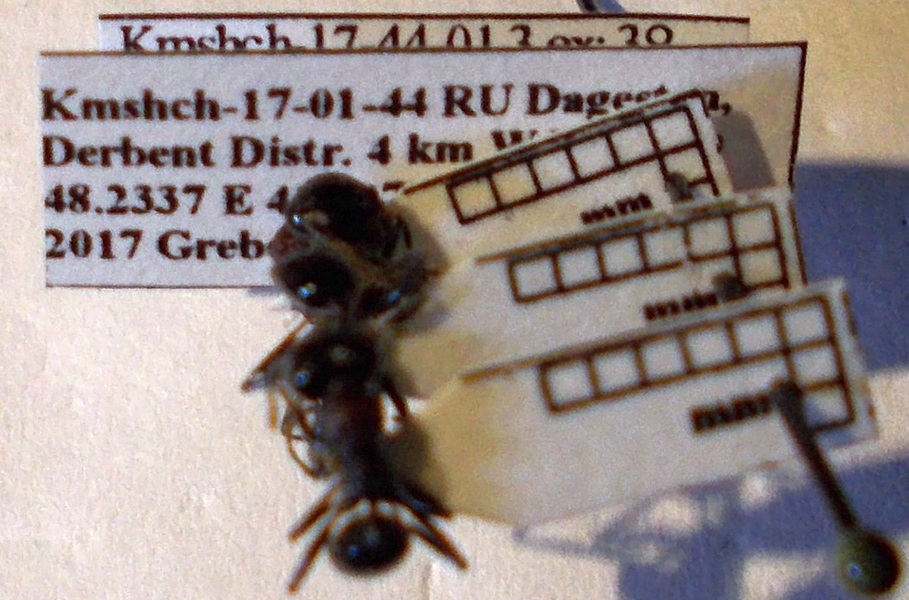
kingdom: Animalia
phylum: Arthropoda
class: Insecta
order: Hymenoptera
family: Formicidae
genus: Messor
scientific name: Messor denticulatus
